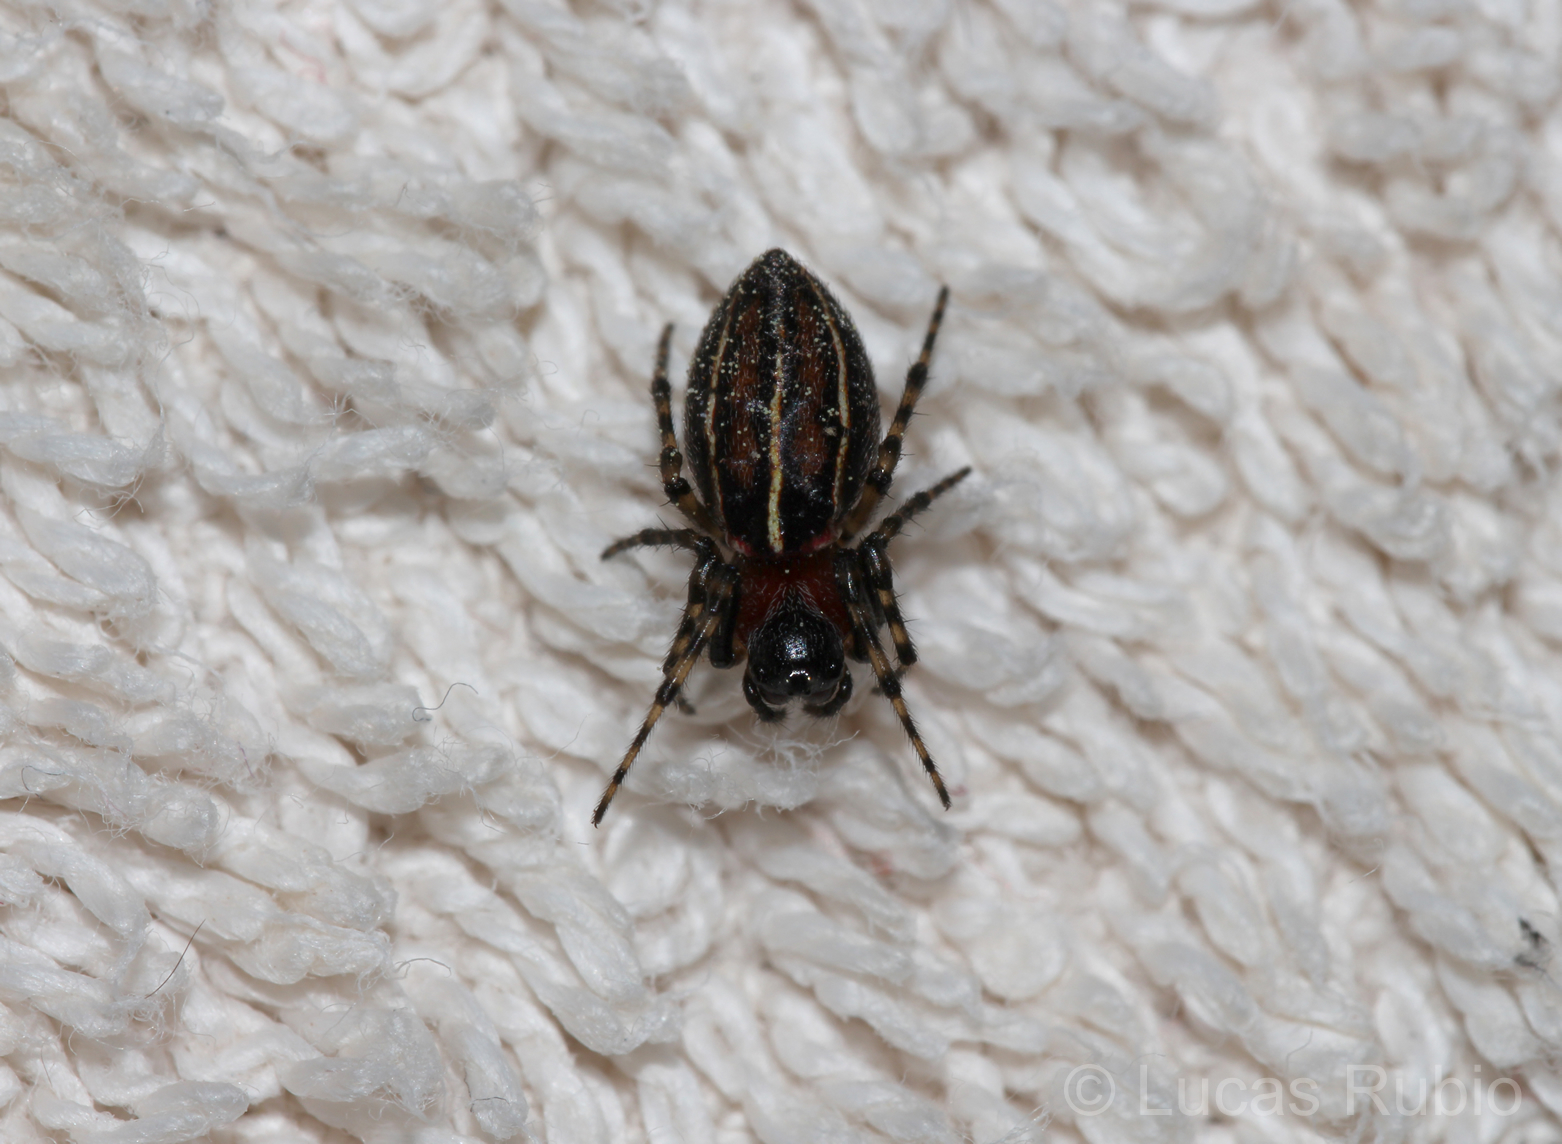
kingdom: Animalia
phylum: Arthropoda
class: Arachnida
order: Araneae
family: Araneidae
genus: Alpaida
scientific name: Alpaida leucogramma
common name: Orb weavers
